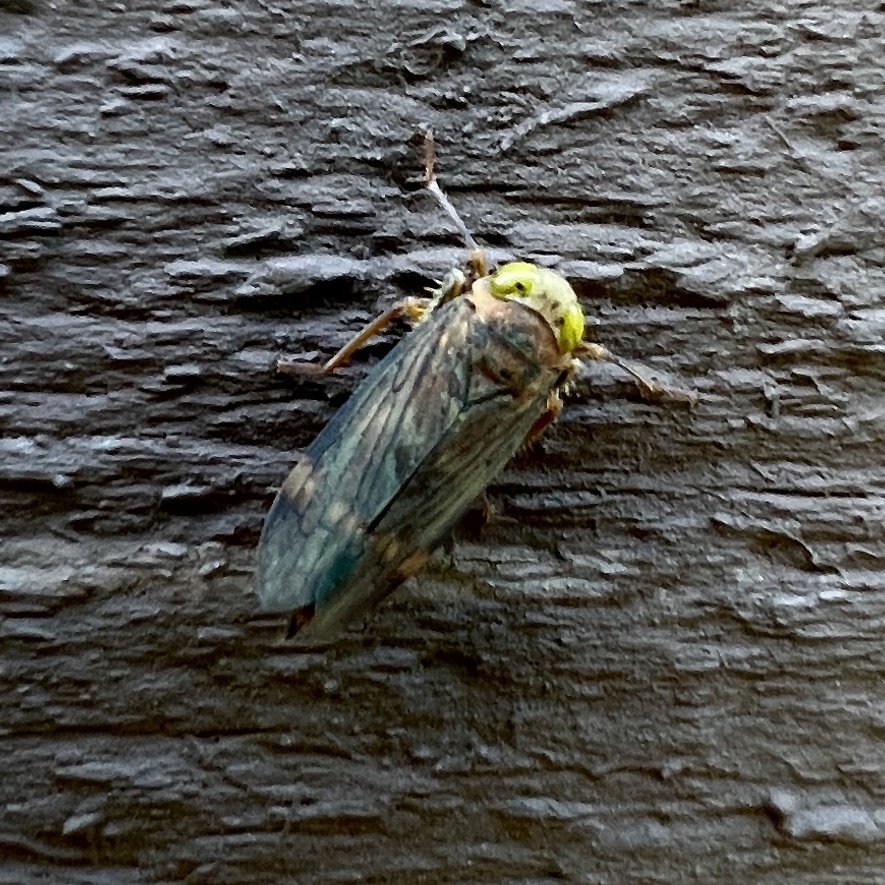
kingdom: Animalia
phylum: Arthropoda
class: Insecta
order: Hemiptera
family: Cicadellidae
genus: Jikradia
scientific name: Jikradia olitoria
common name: Coppery leafhopper
